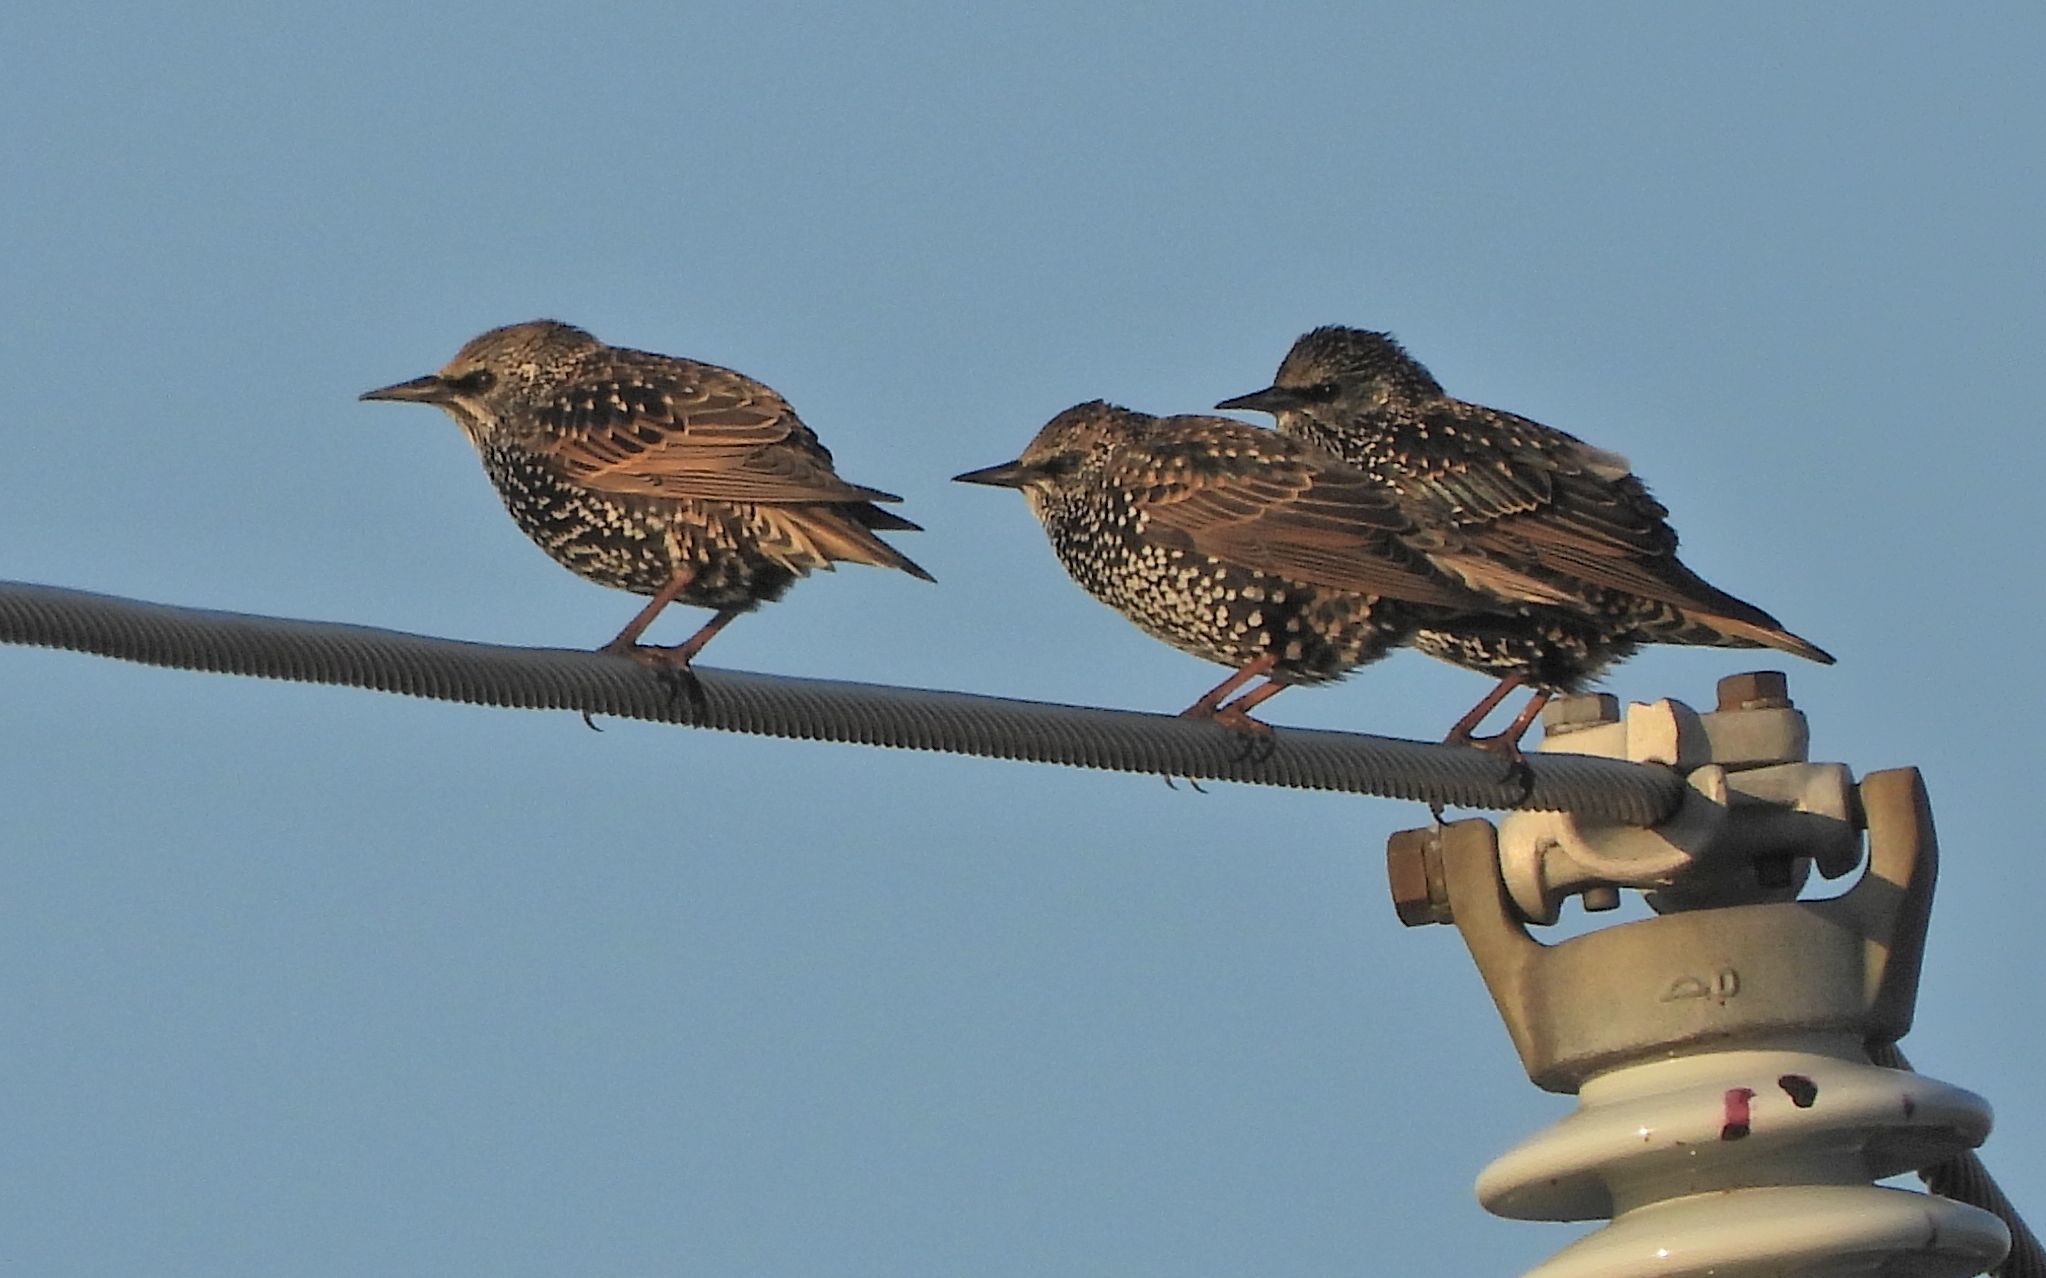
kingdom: Animalia
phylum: Chordata
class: Aves
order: Passeriformes
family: Sturnidae
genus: Sturnus
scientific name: Sturnus vulgaris
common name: Common starling
